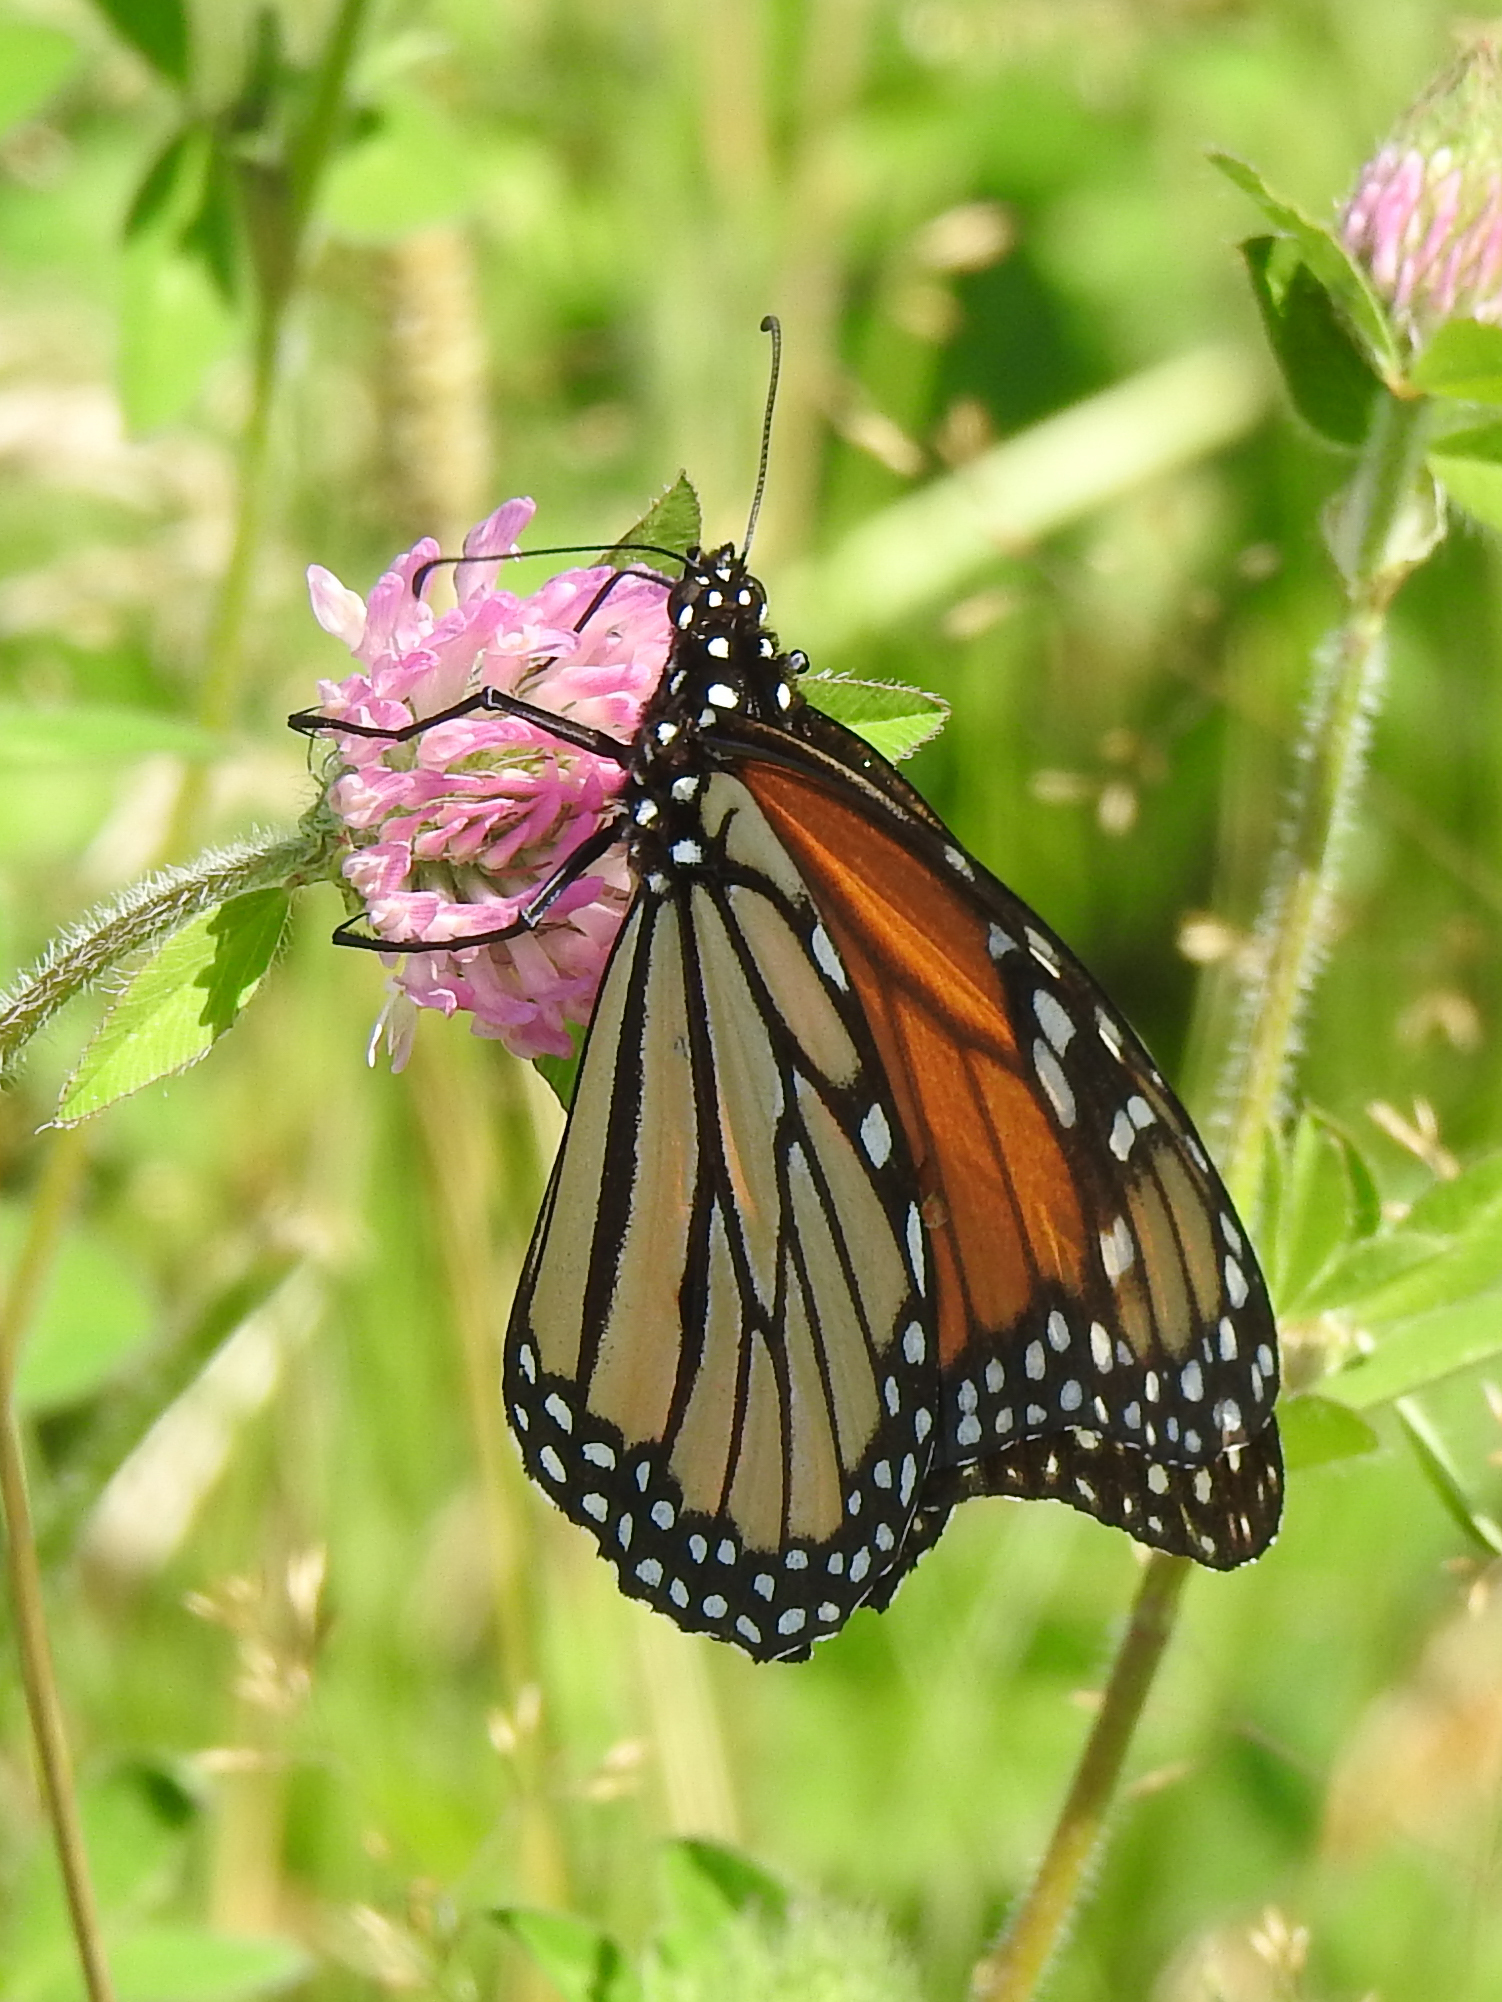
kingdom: Animalia
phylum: Arthropoda
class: Insecta
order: Lepidoptera
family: Nymphalidae
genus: Danaus
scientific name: Danaus plexippus
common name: Monarch
